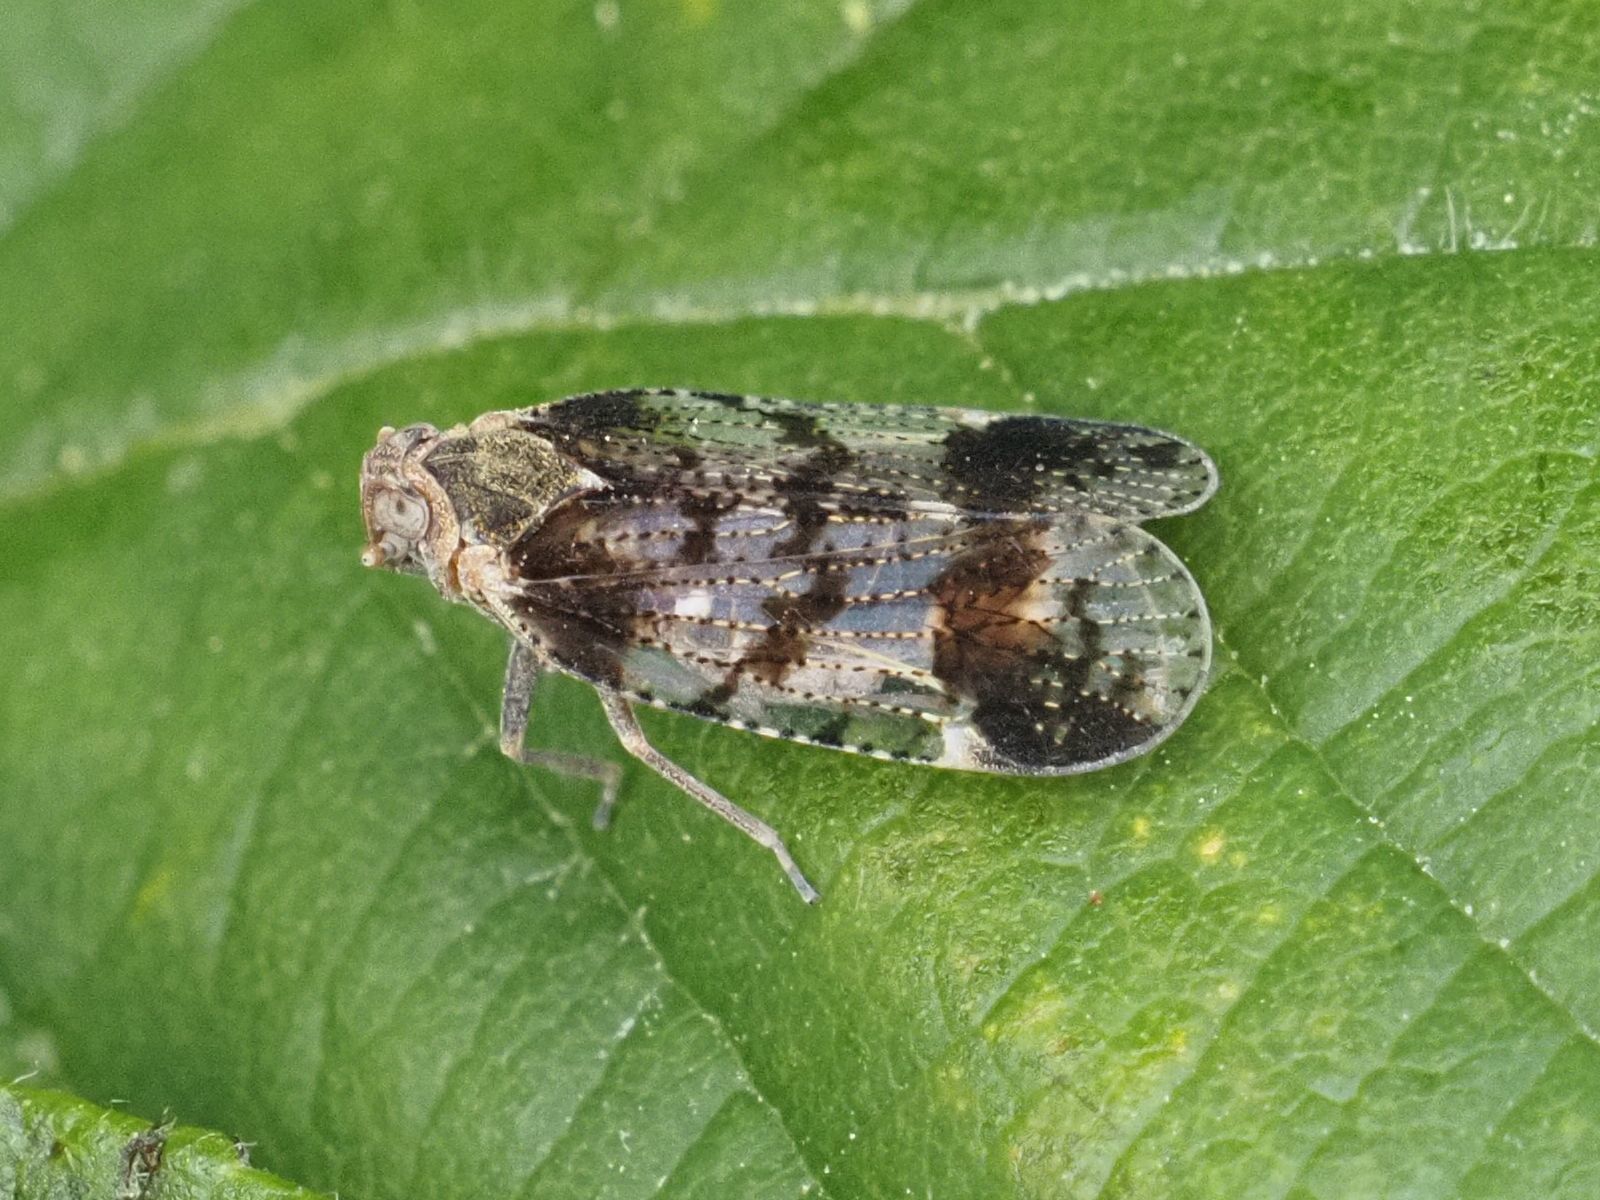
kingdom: Animalia
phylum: Arthropoda
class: Insecta
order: Hemiptera
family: Cixiidae
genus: Cixius
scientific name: Cixius cunicularius
